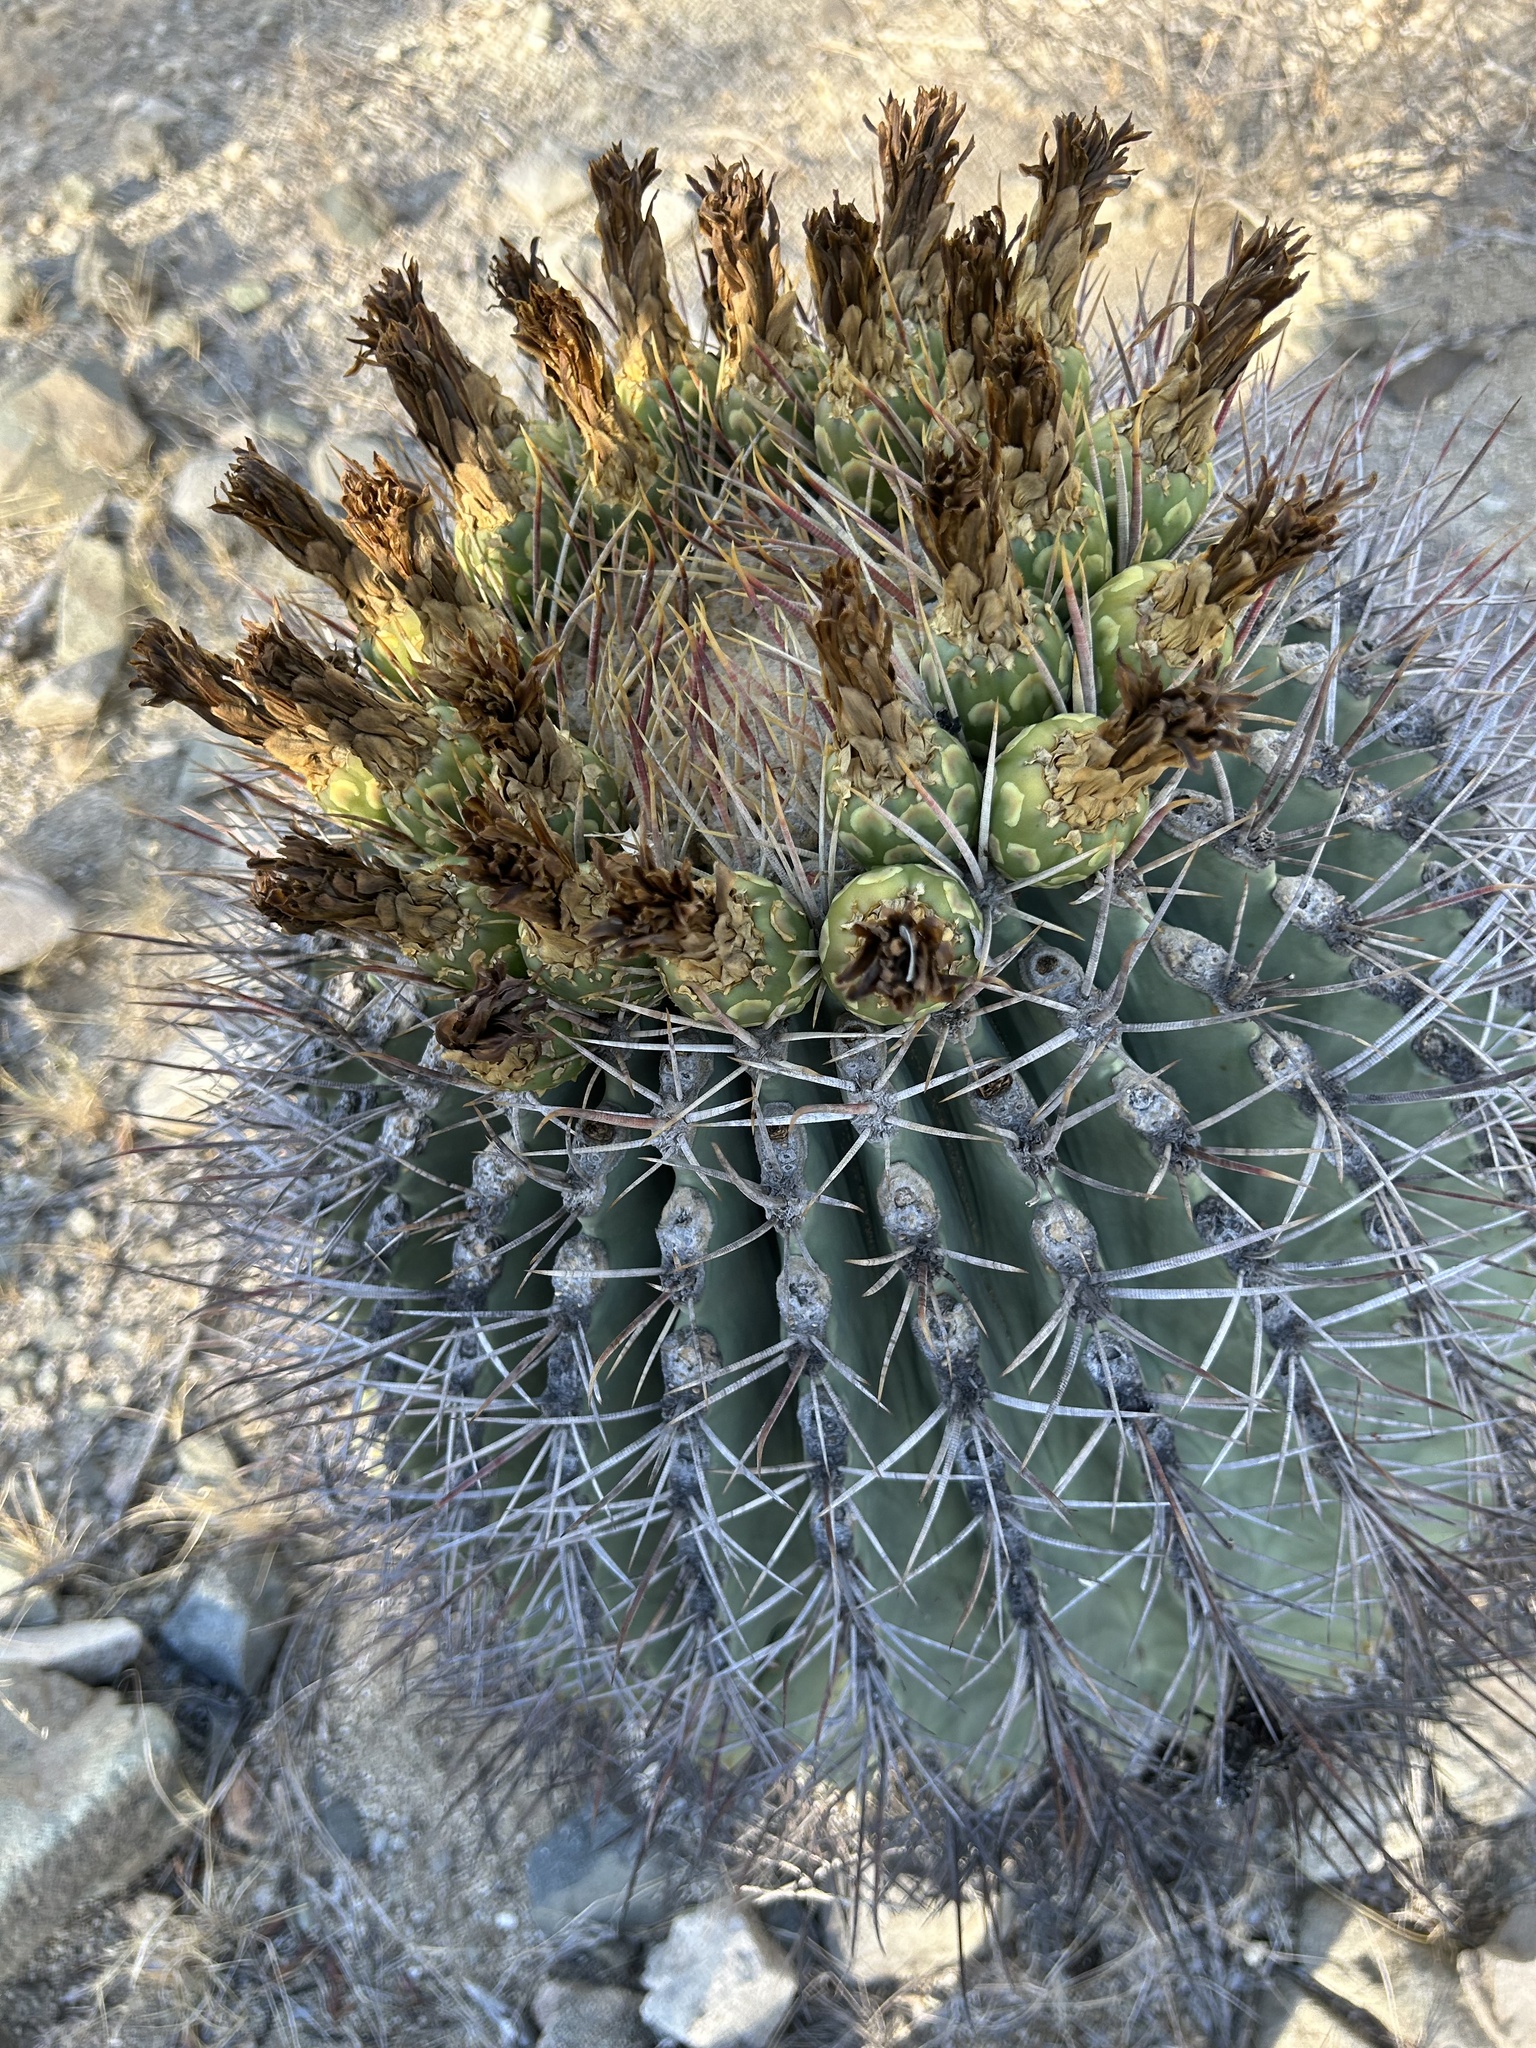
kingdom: Plantae
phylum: Tracheophyta
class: Magnoliopsida
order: Caryophyllales
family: Cactaceae
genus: Ferocactus
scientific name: Ferocactus emoryi
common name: Emory's barrel cactus
